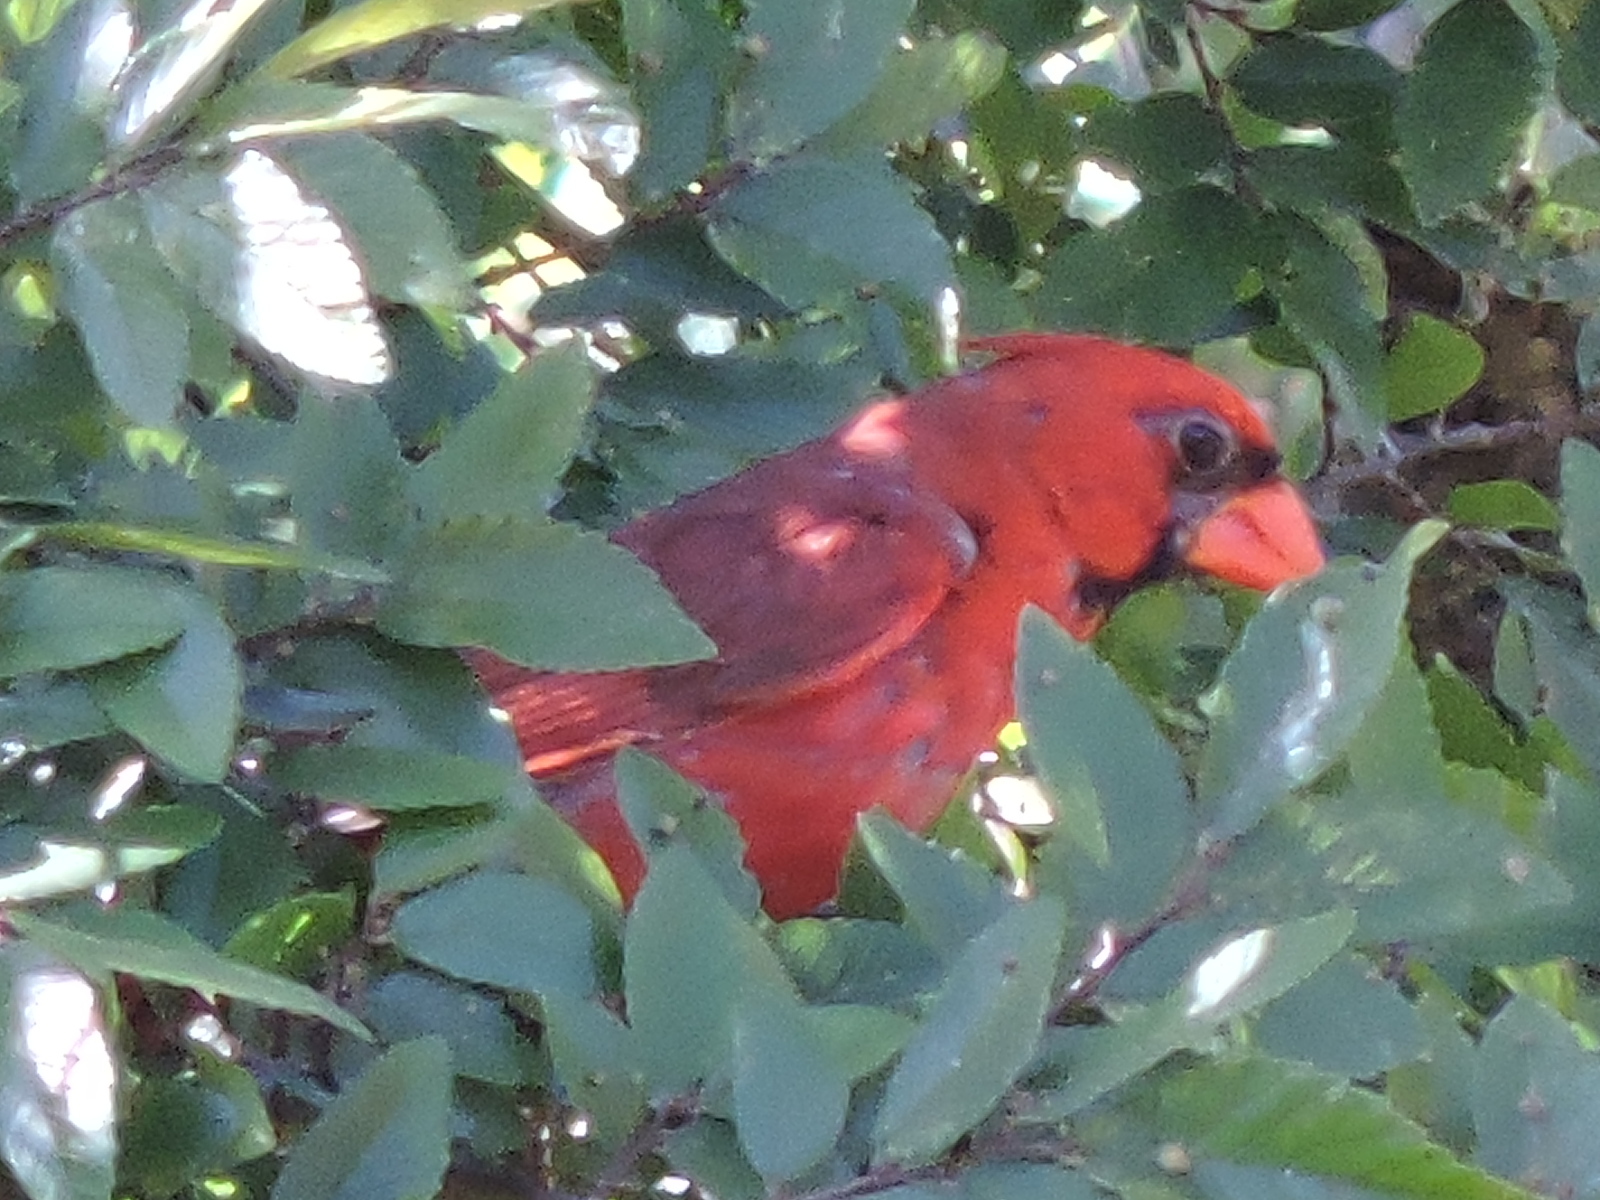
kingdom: Animalia
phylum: Chordata
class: Aves
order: Passeriformes
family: Cardinalidae
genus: Cardinalis
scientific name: Cardinalis cardinalis
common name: Northern cardinal
